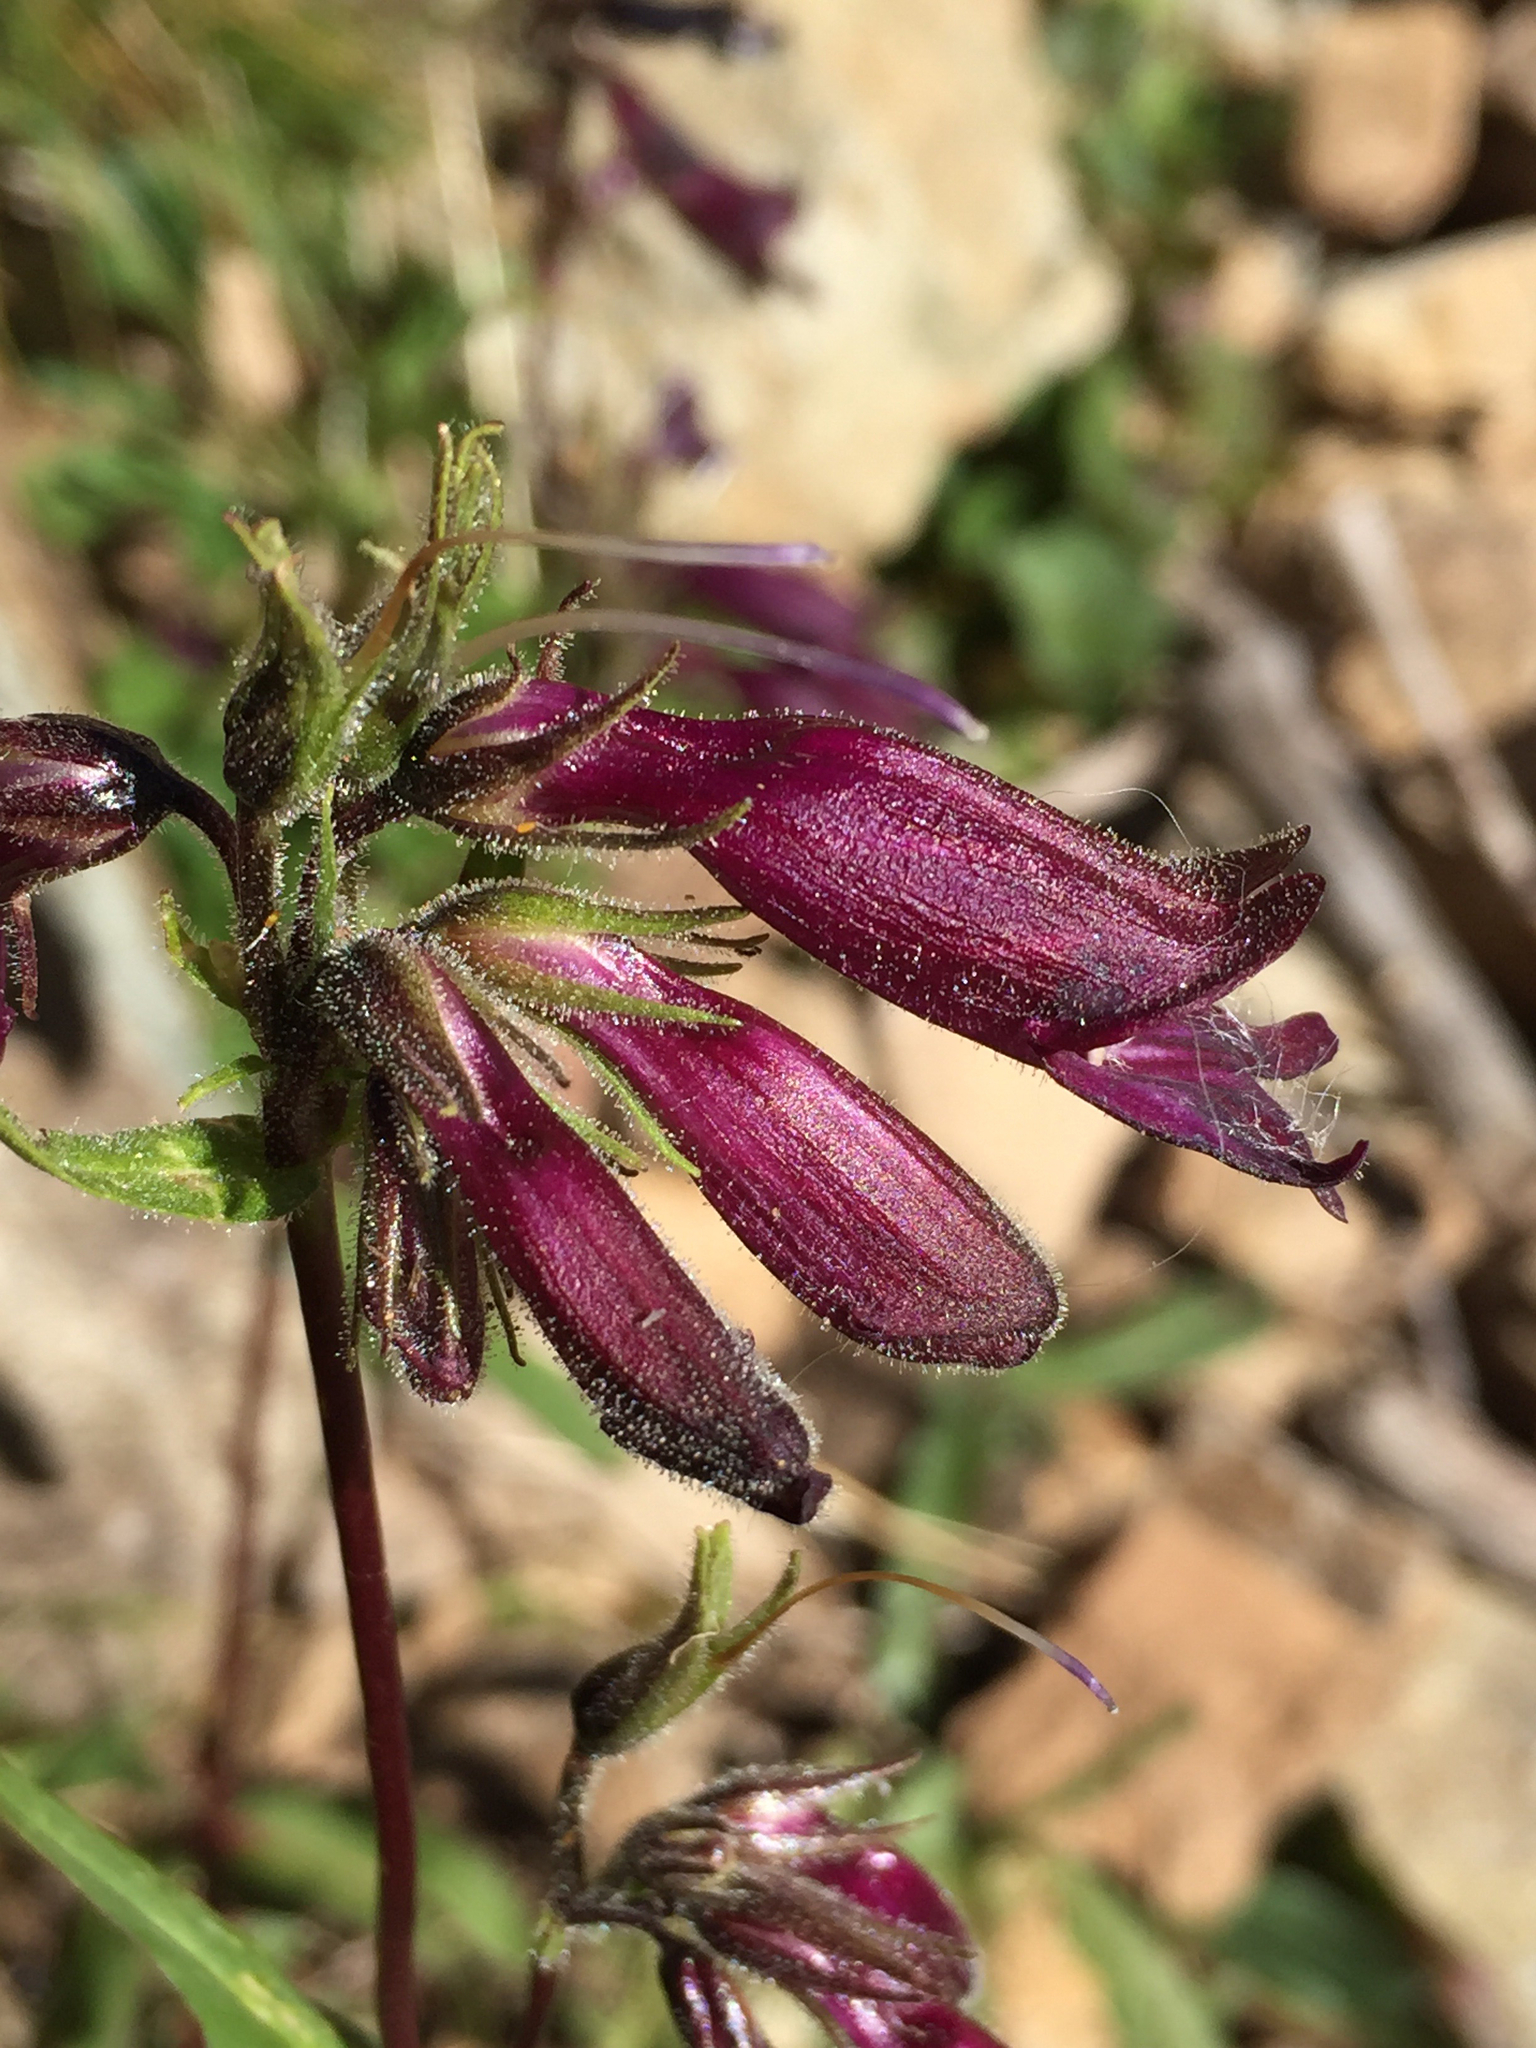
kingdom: Plantae
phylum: Tracheophyta
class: Magnoliopsida
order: Lamiales
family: Plantaginaceae
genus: Penstemon
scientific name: Penstemon whippleanus
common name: Whipple's penstemon
